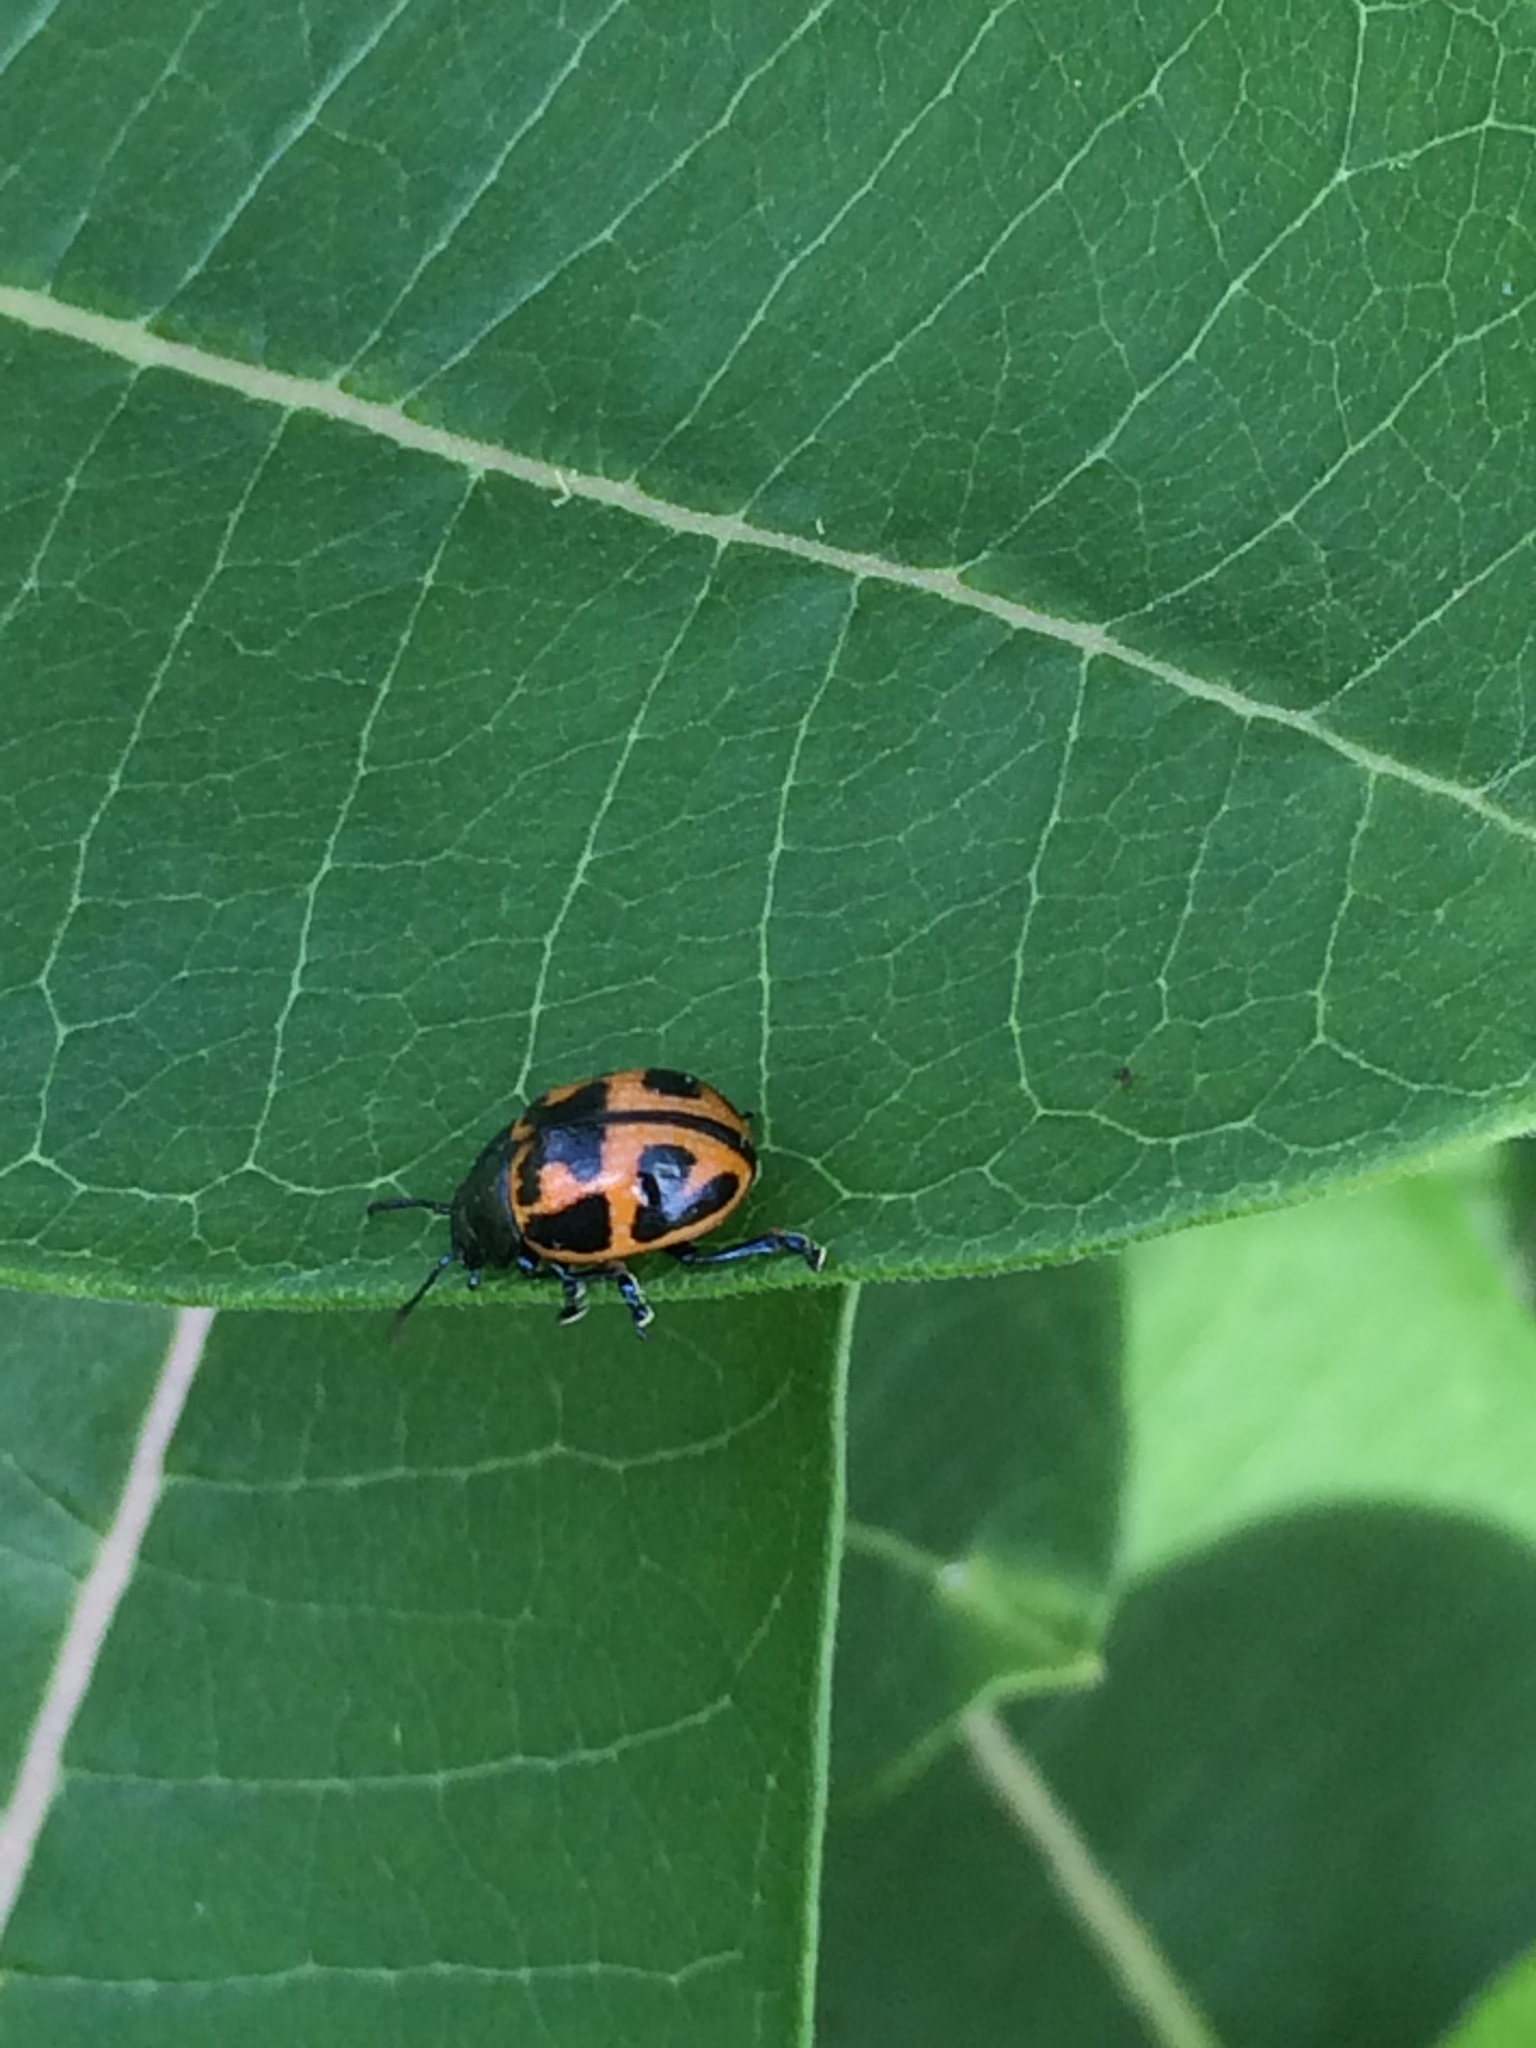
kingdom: Animalia
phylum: Arthropoda
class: Insecta
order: Coleoptera
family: Chrysomelidae
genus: Labidomera
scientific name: Labidomera clivicollis
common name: Swamp milkweed leaf beetle
